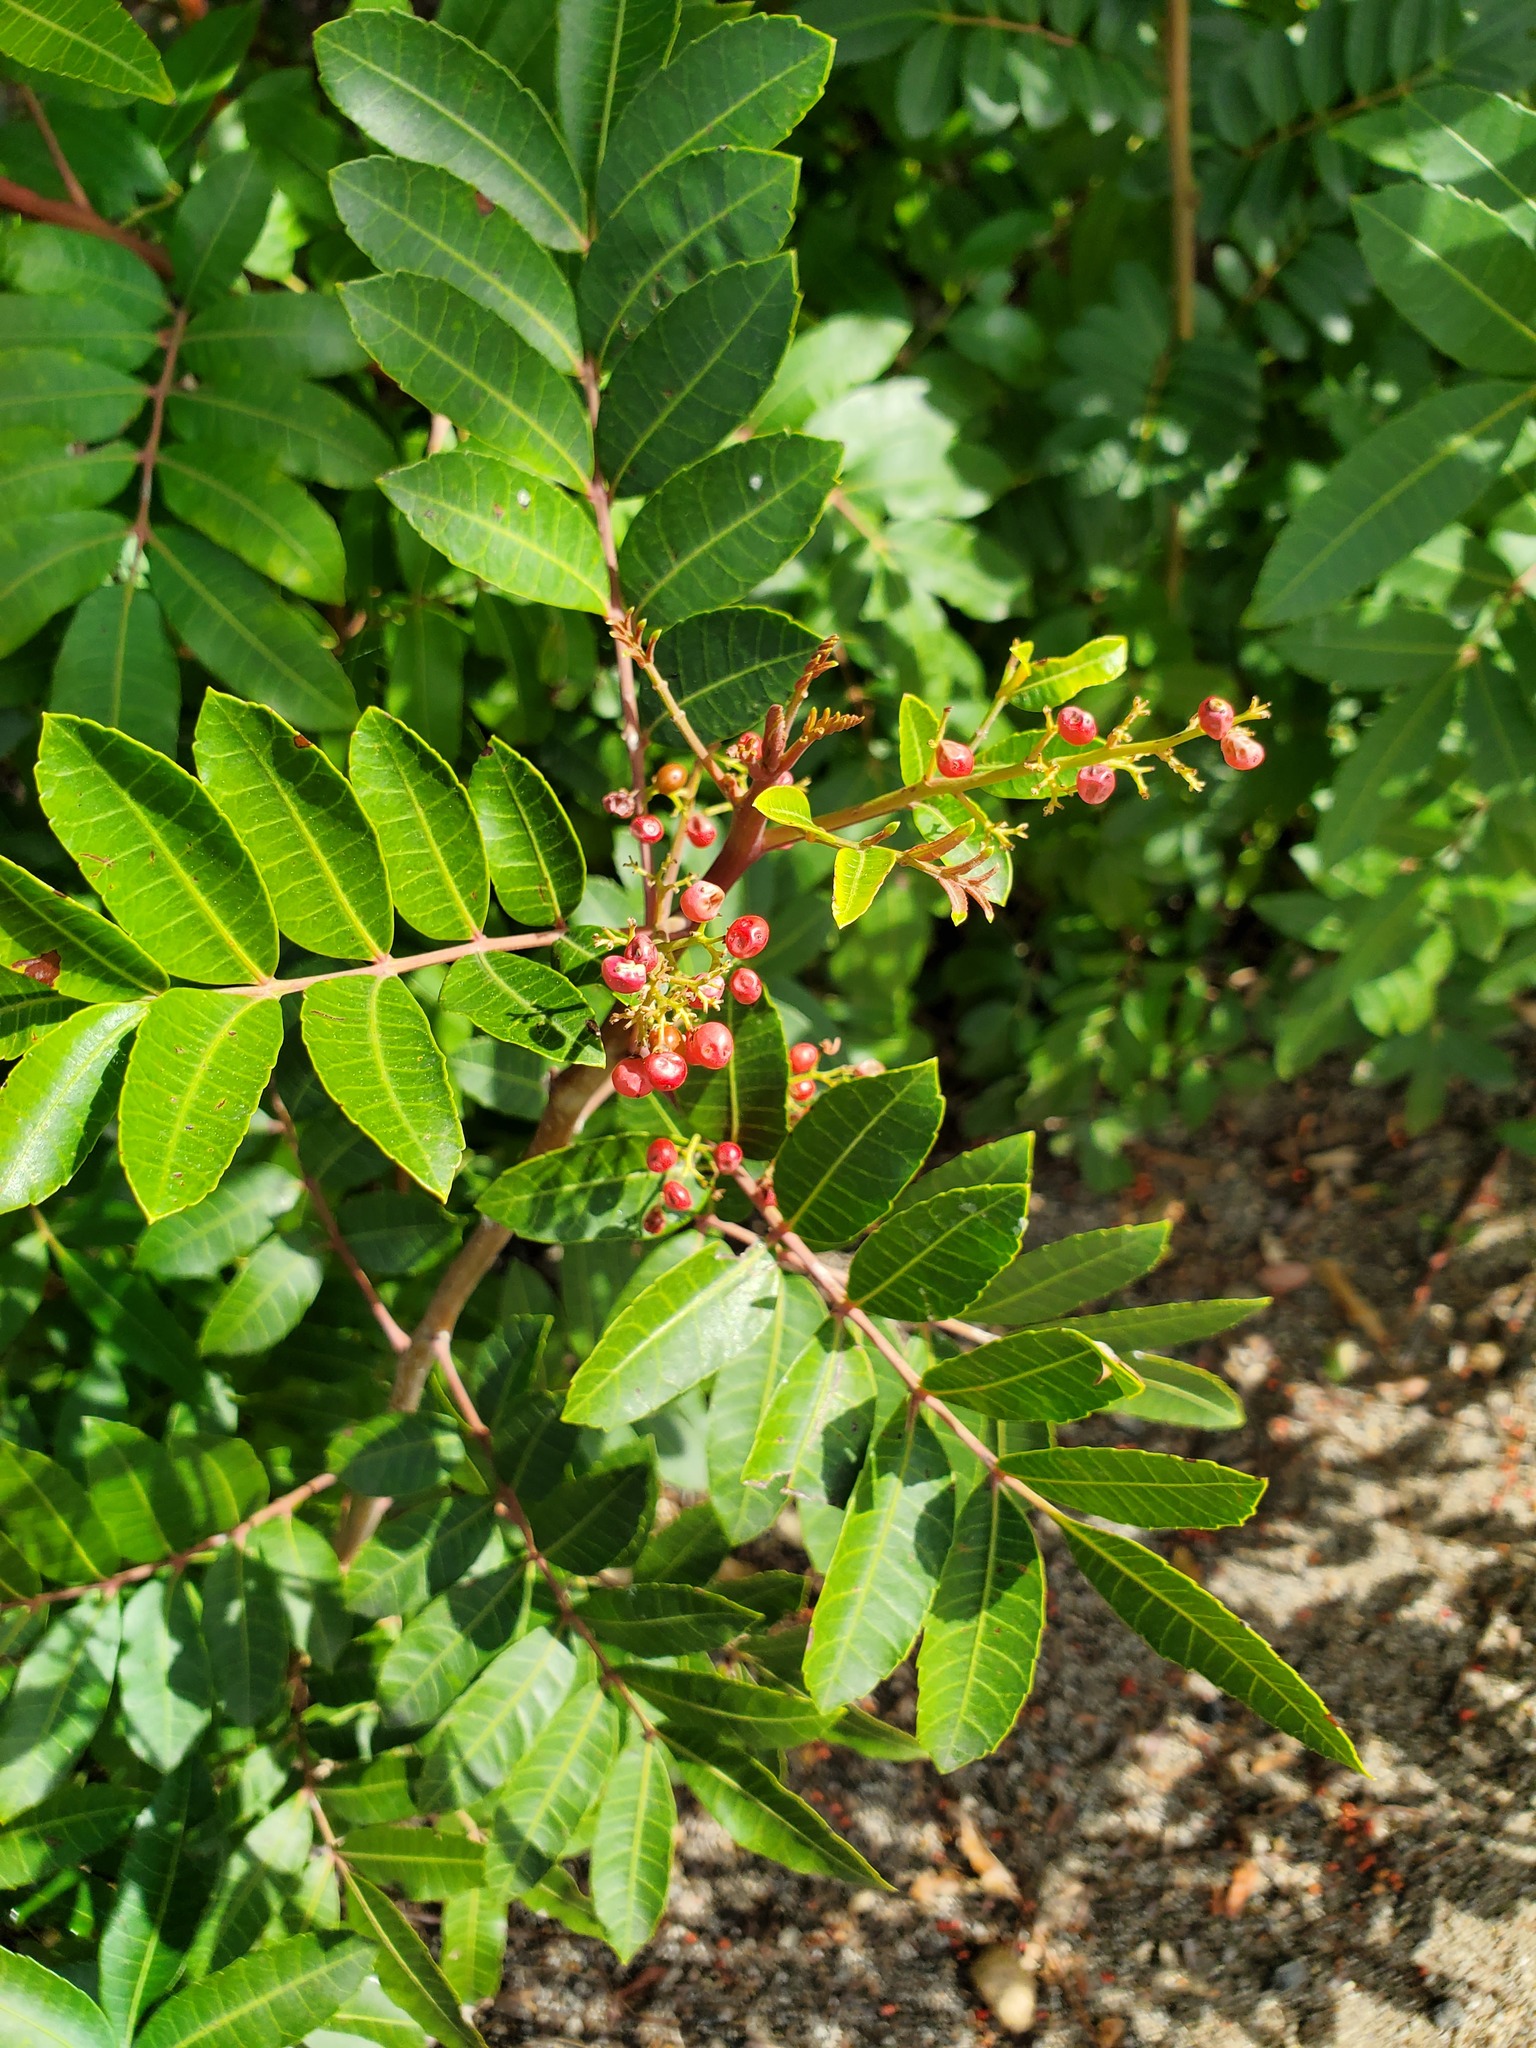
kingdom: Plantae
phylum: Tracheophyta
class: Magnoliopsida
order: Sapindales
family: Anacardiaceae
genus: Schinus
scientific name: Schinus terebinthifolia
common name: Brazilian peppertree
